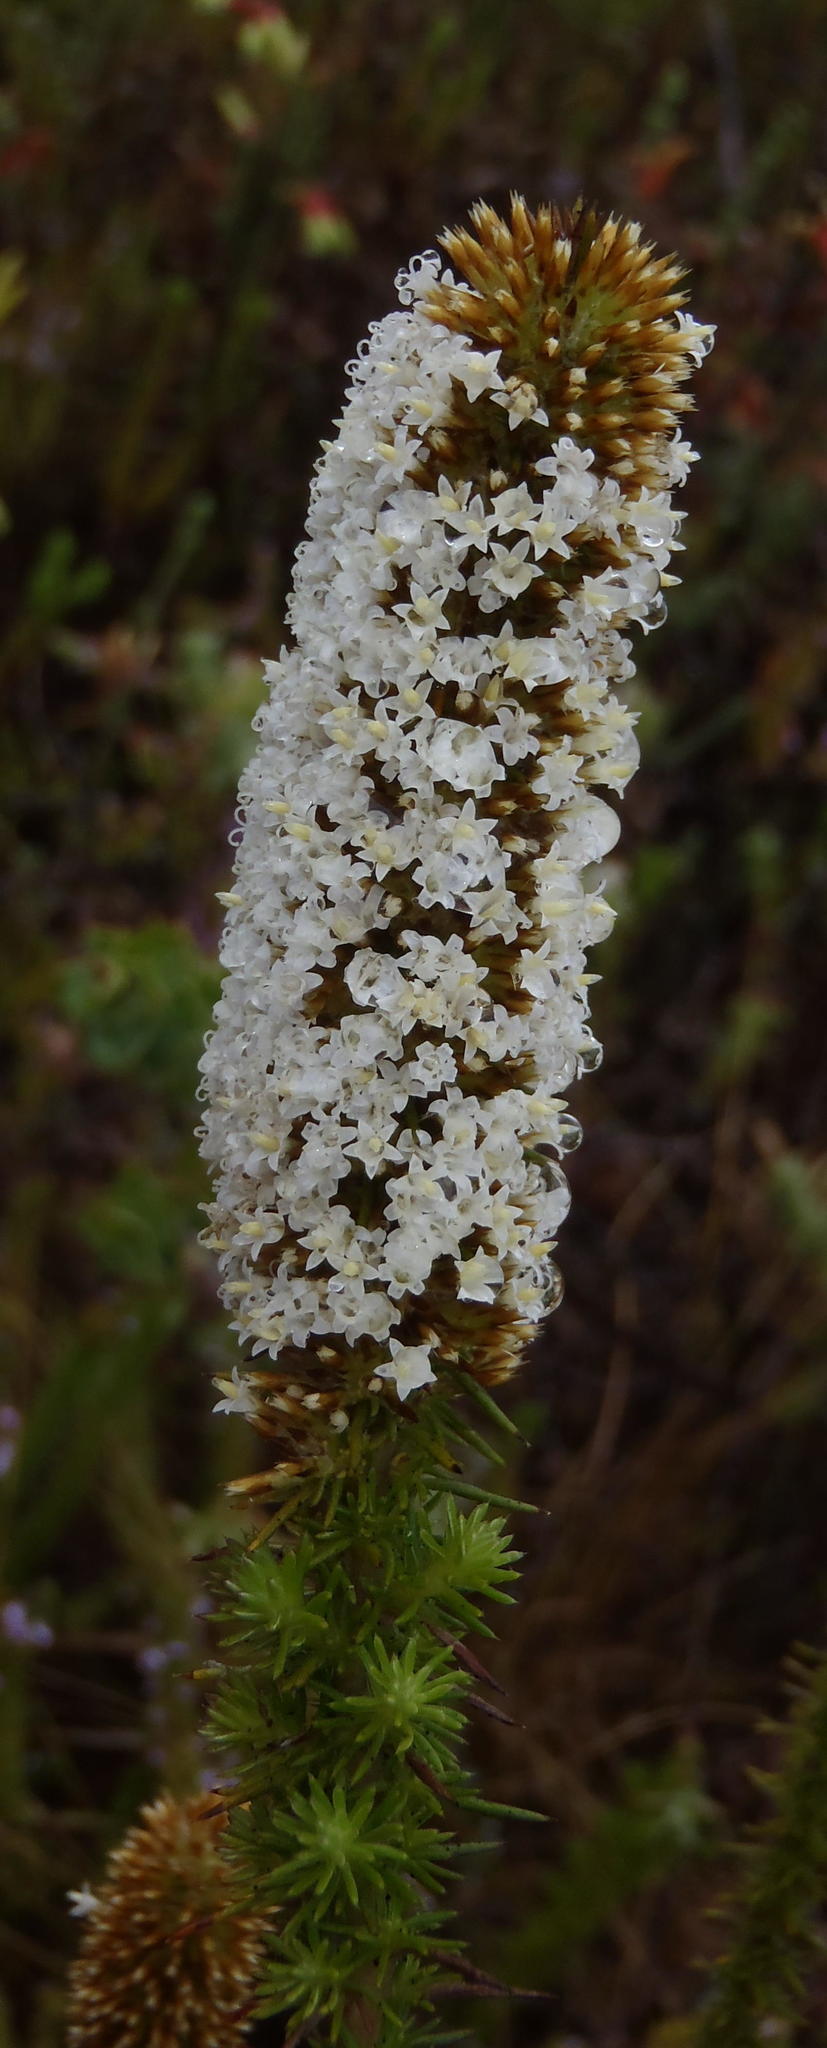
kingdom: Plantae
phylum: Tracheophyta
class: Magnoliopsida
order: Asterales
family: Asteraceae
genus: Stoebe
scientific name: Stoebe alopecuroides
